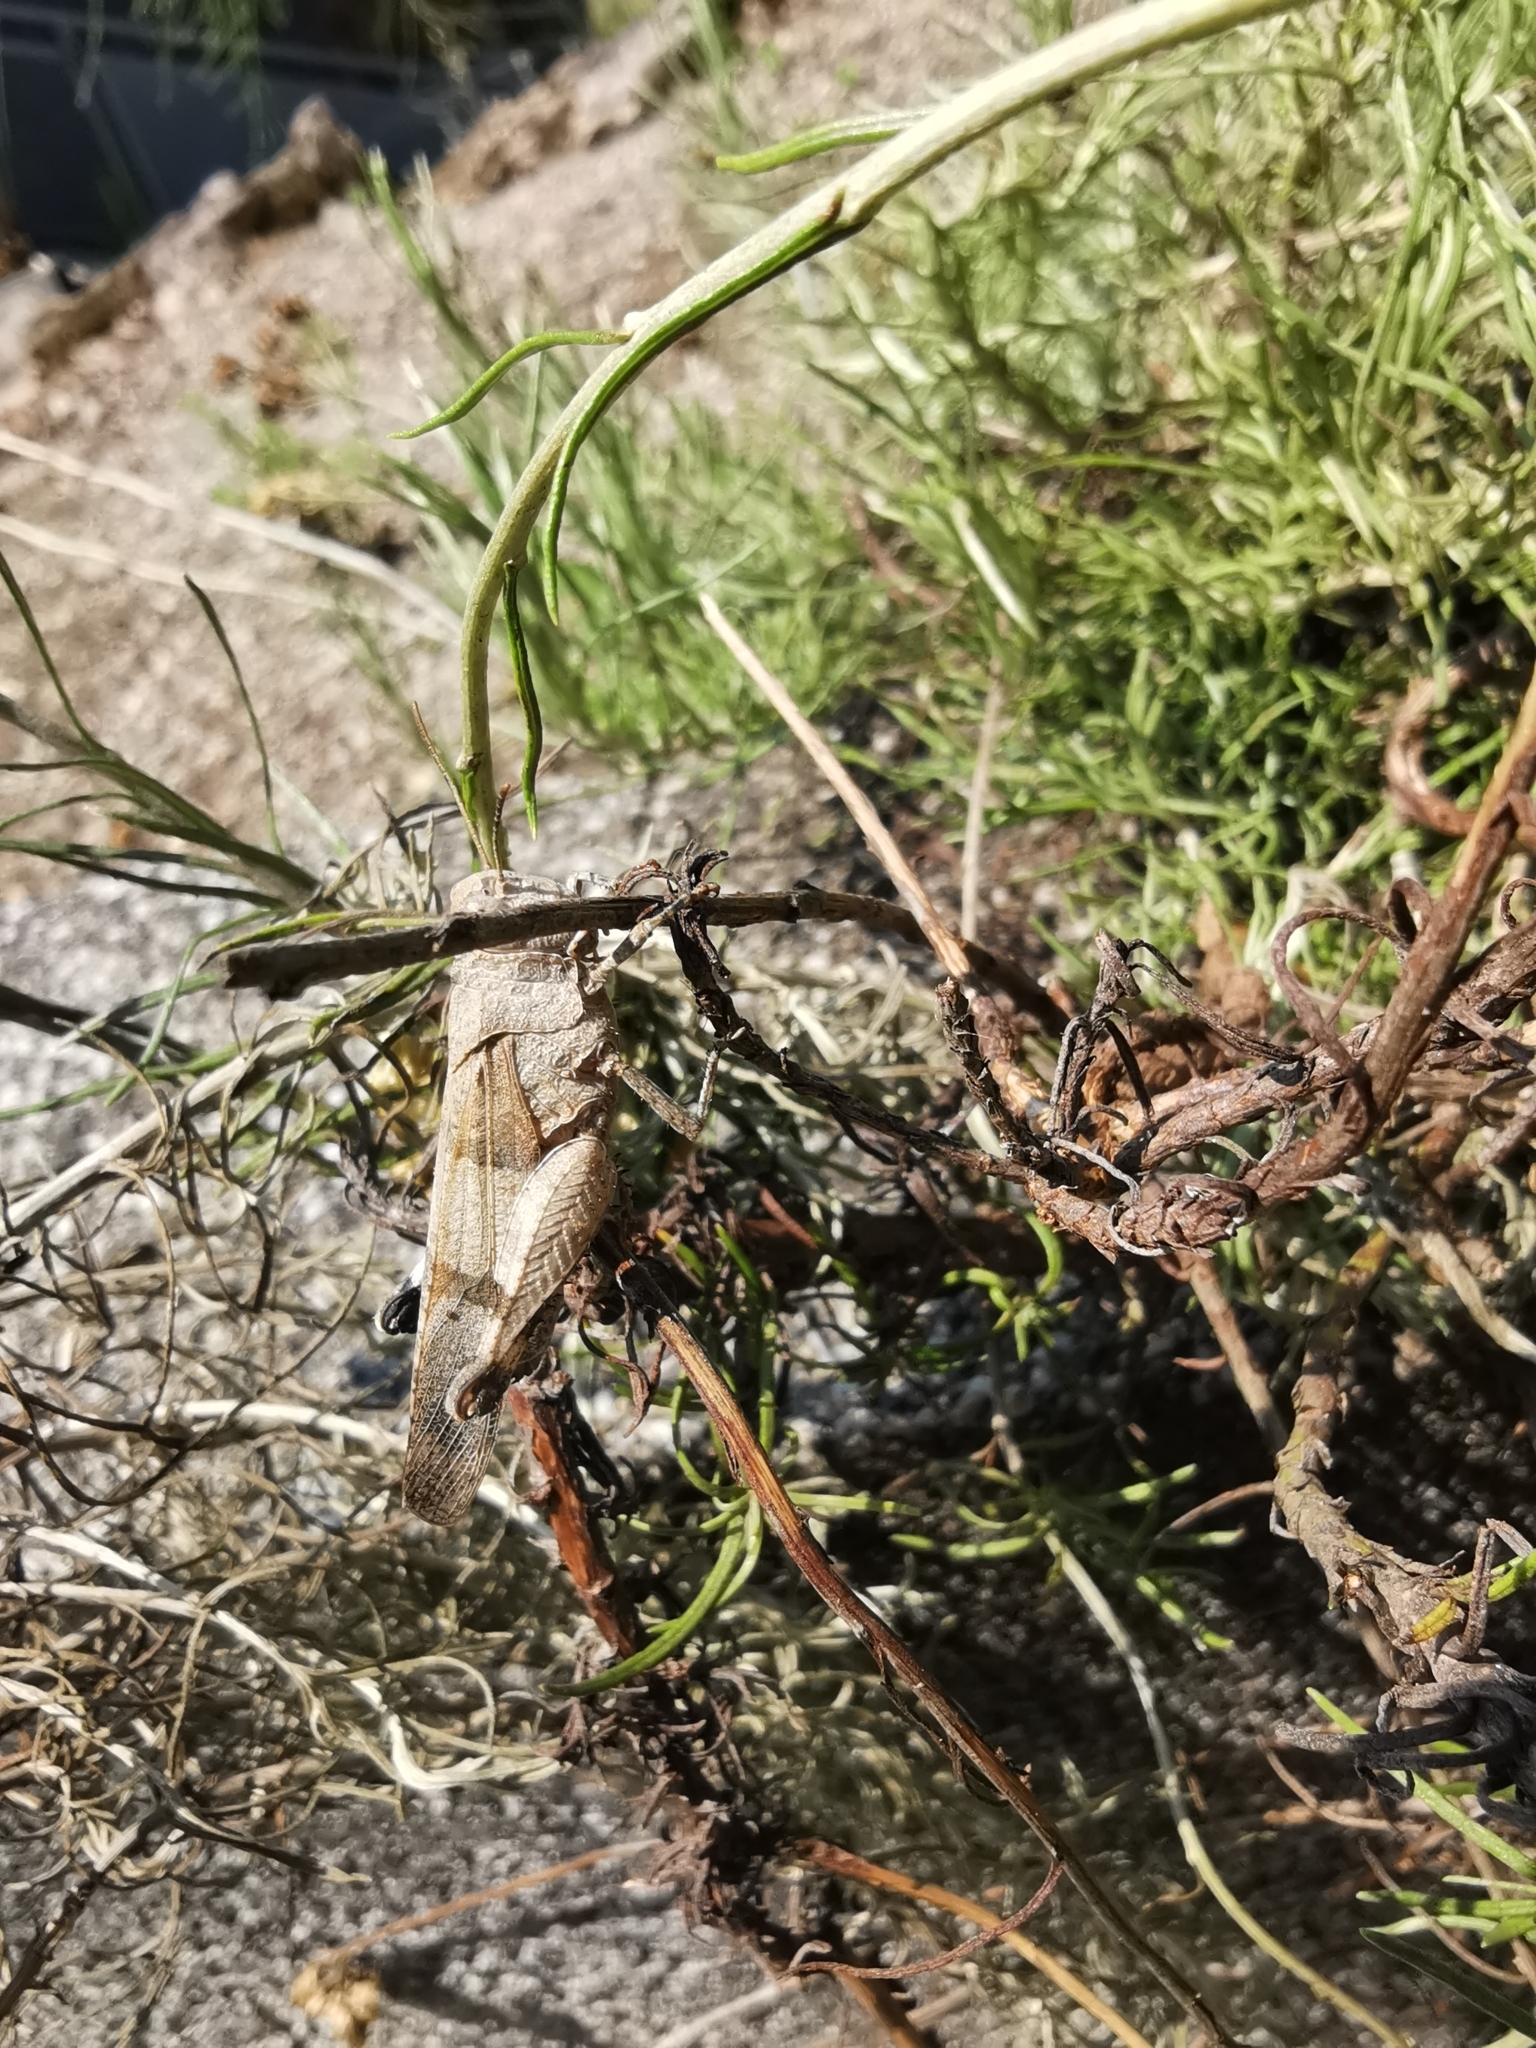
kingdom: Animalia
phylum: Arthropoda
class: Insecta
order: Orthoptera
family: Acrididae
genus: Oedipoda
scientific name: Oedipoda caerulescens
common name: Blue-winged grasshopper
